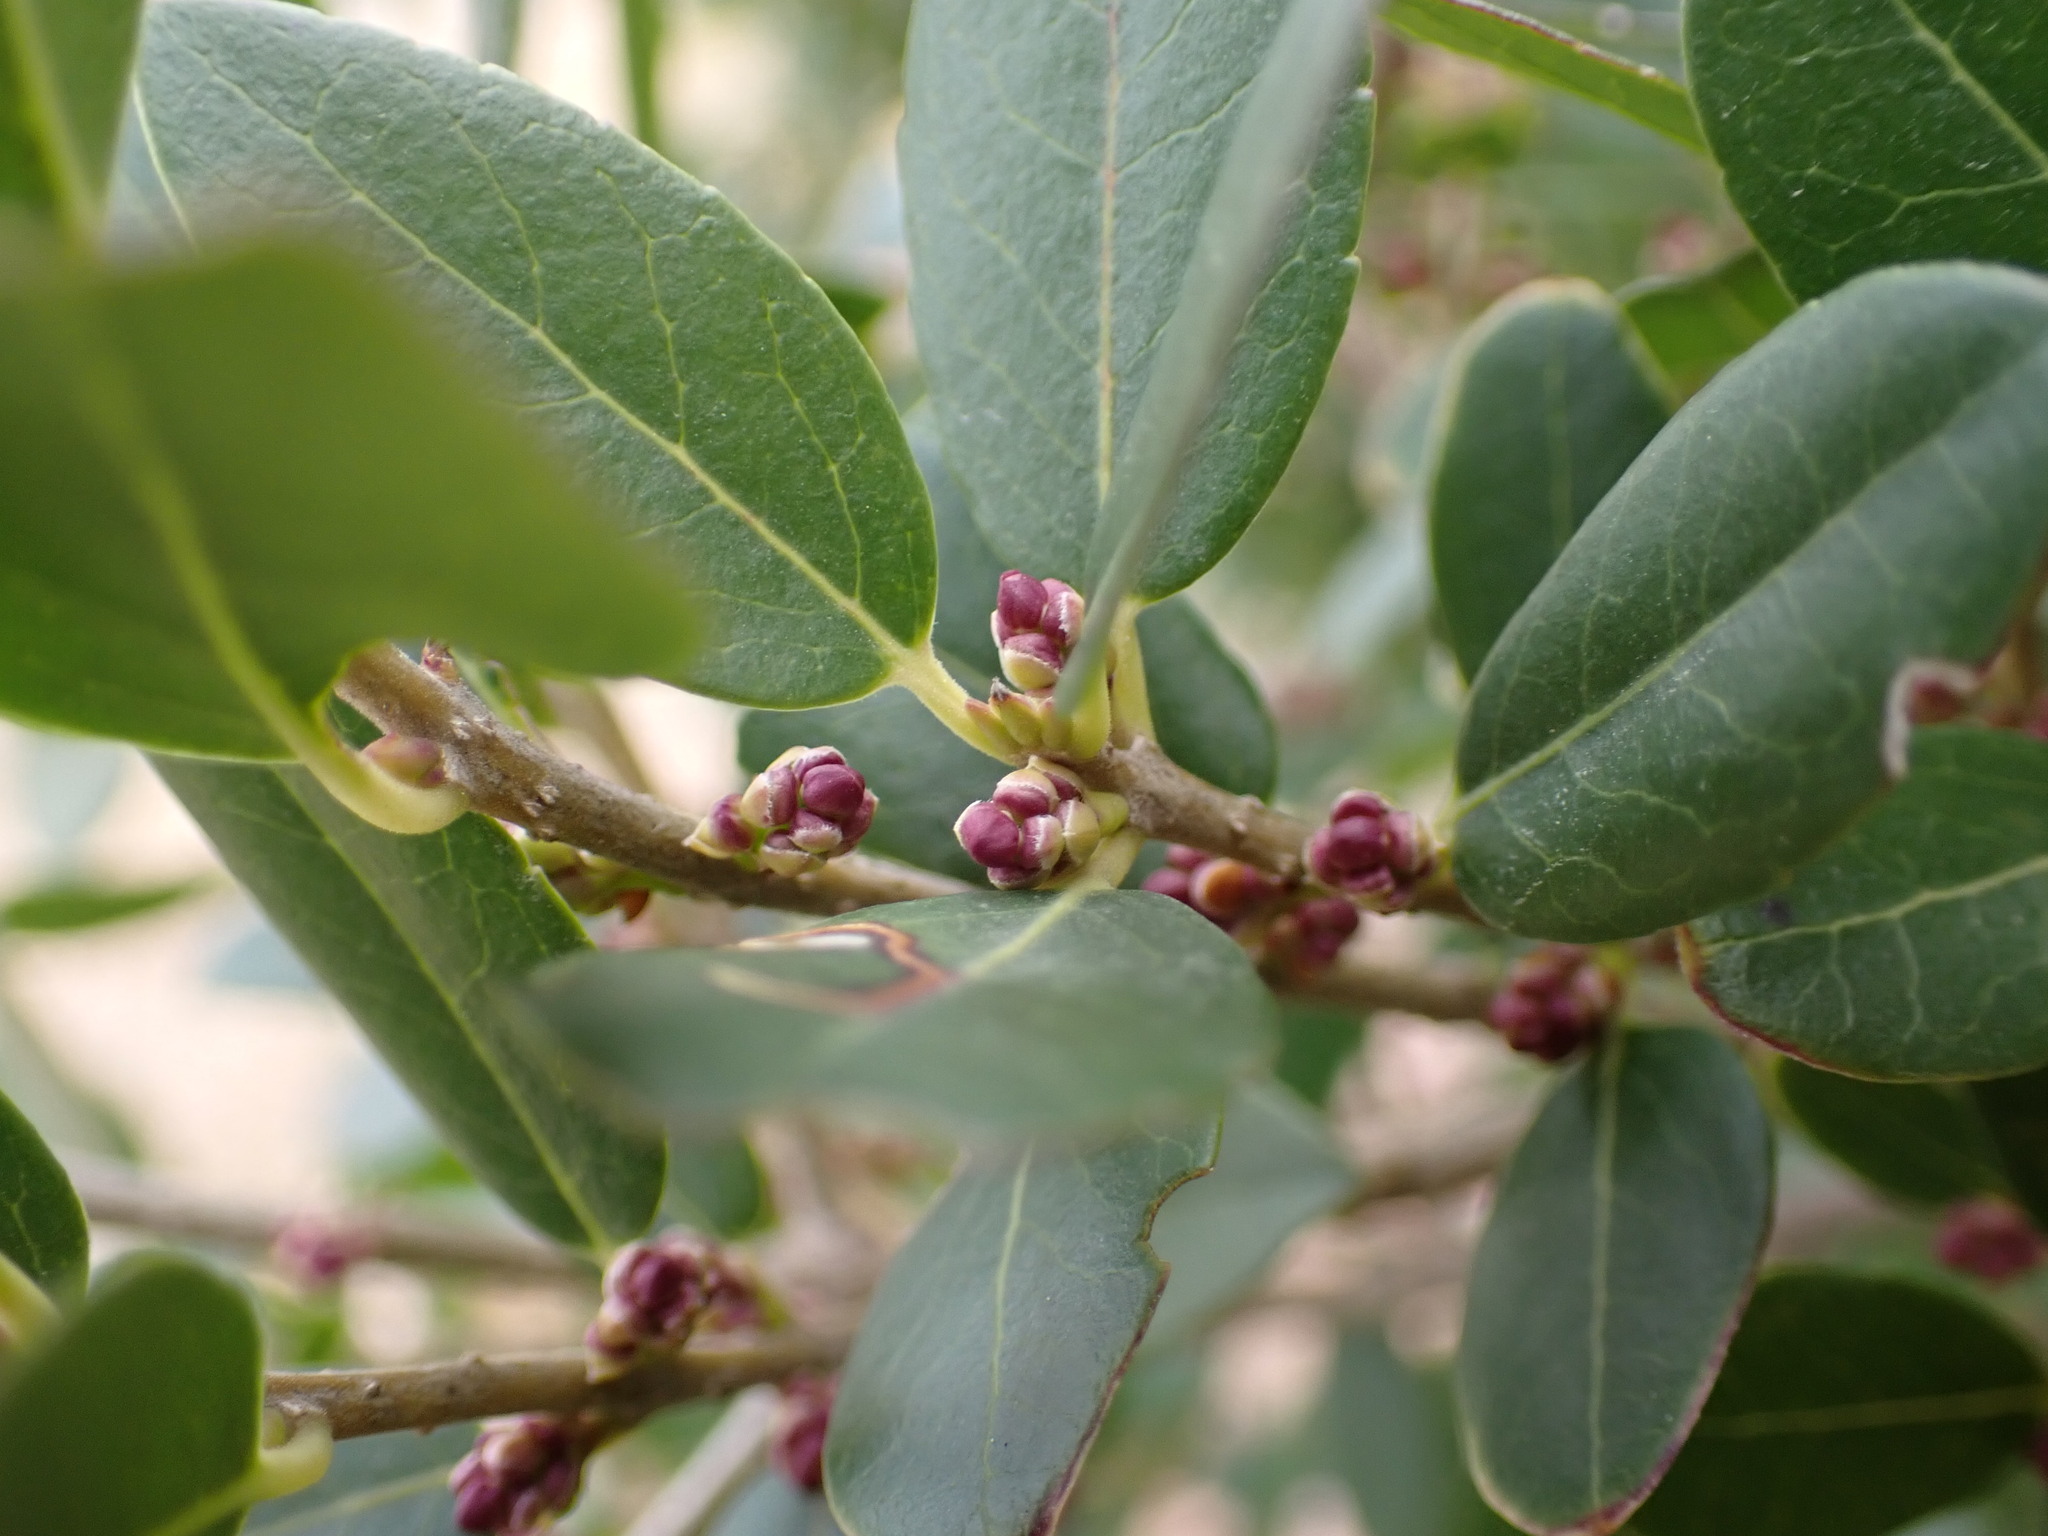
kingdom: Plantae
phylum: Tracheophyta
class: Magnoliopsida
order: Lamiales
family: Oleaceae
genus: Phillyrea
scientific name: Phillyrea latifolia
